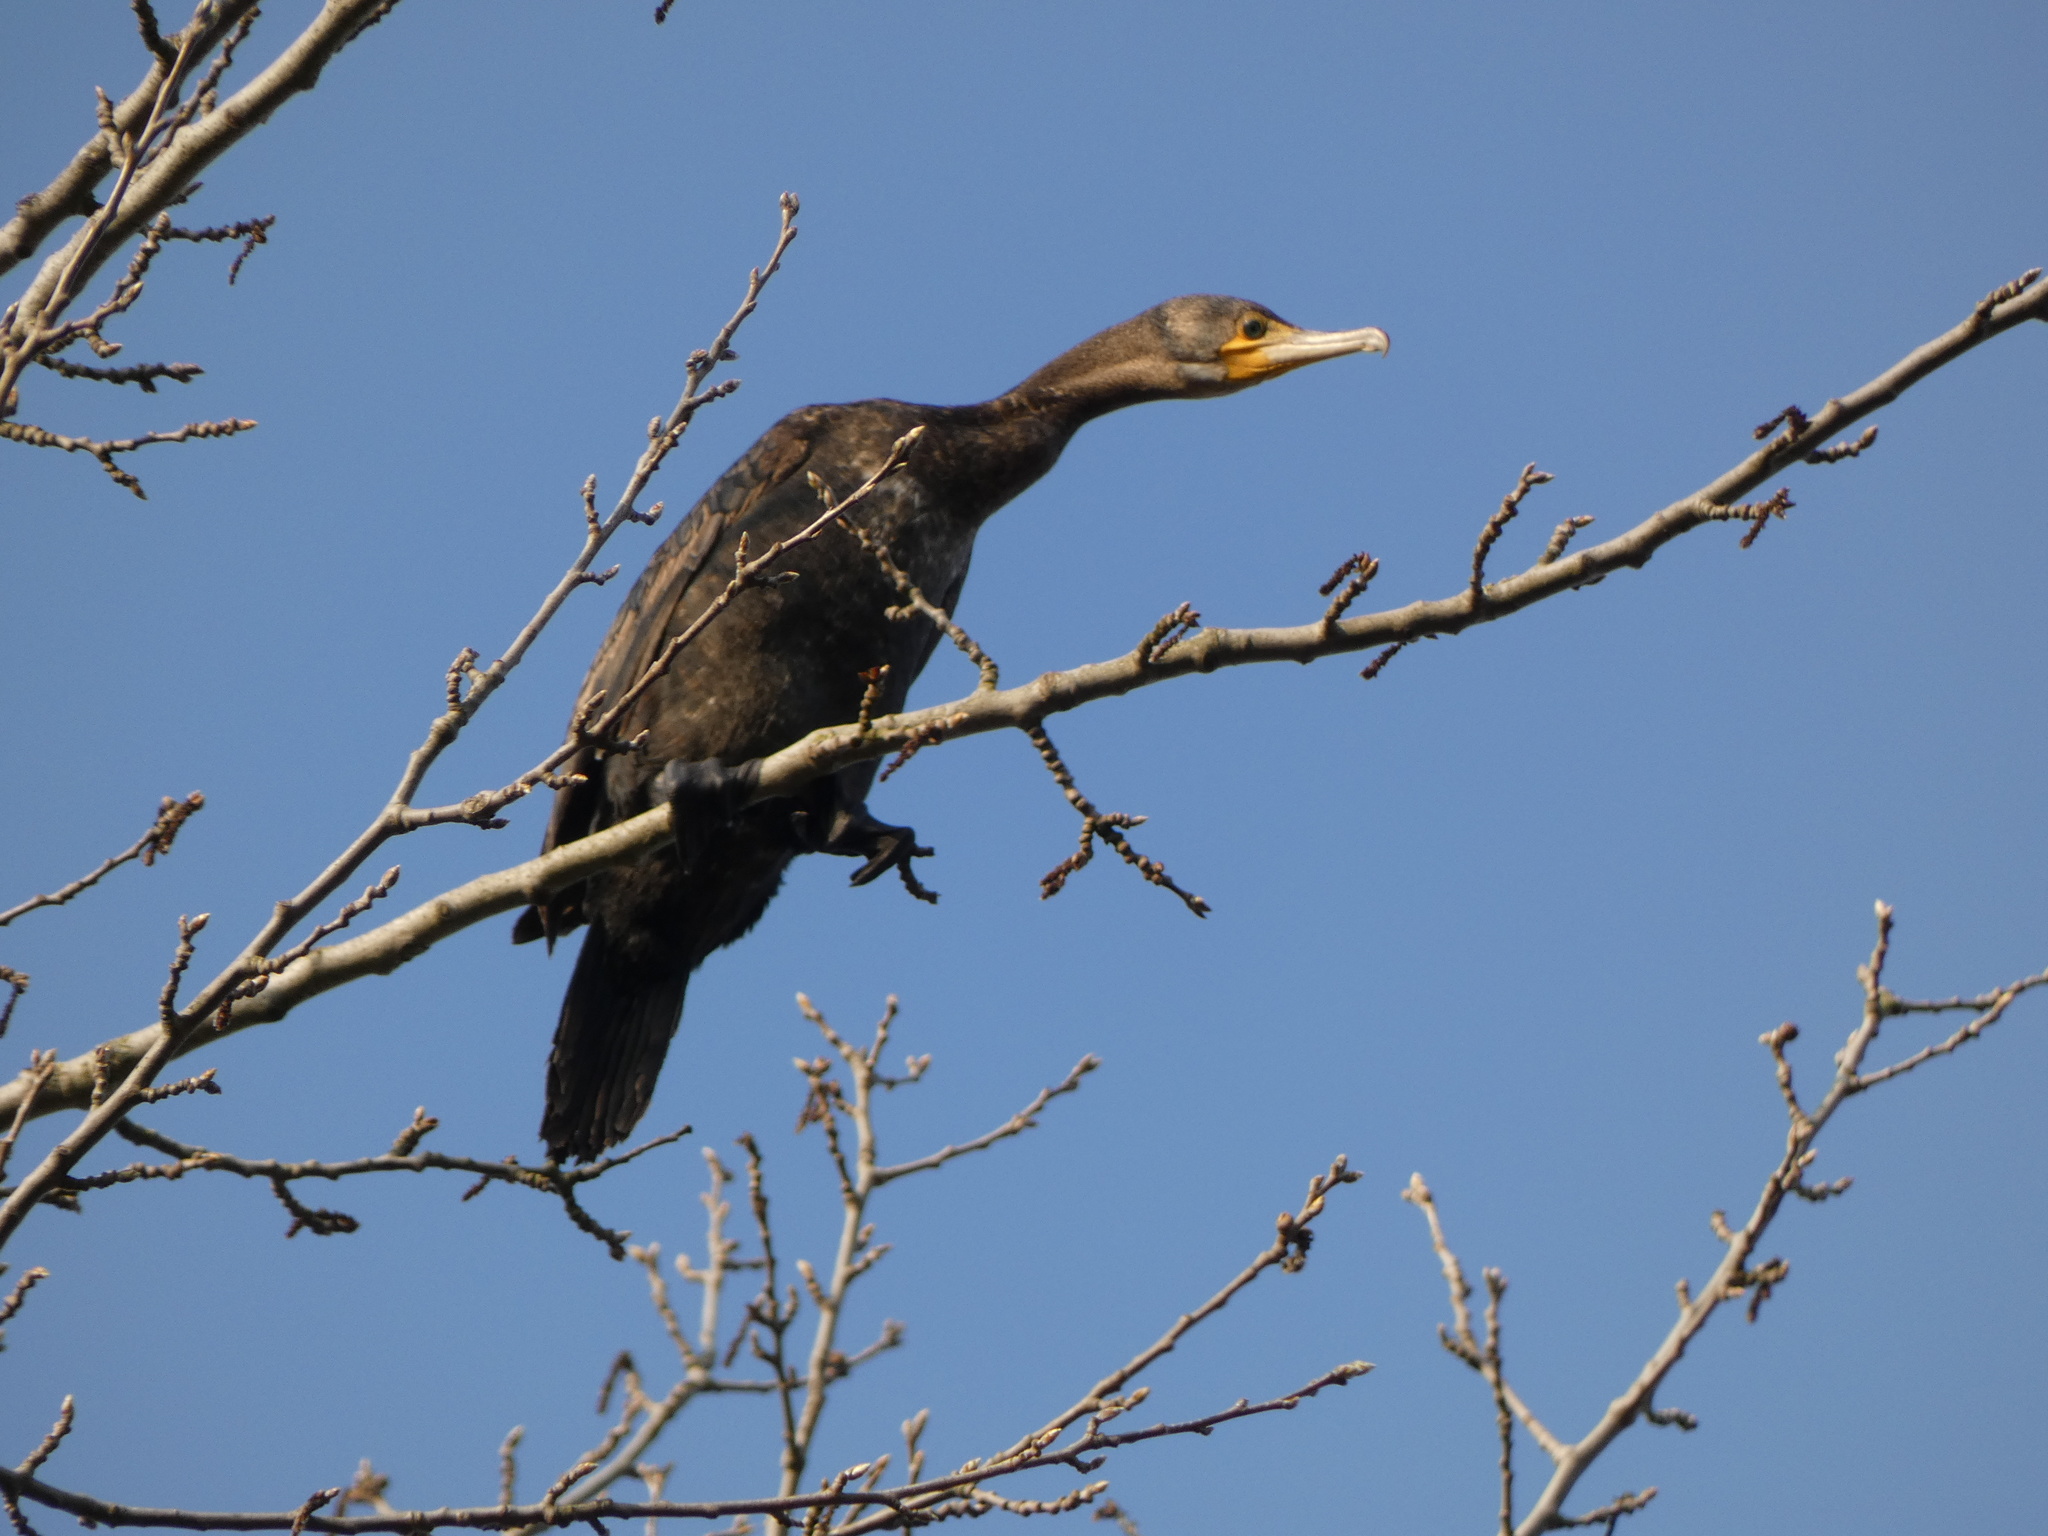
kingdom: Animalia
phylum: Chordata
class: Aves
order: Suliformes
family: Phalacrocoracidae
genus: Phalacrocorax
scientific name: Phalacrocorax carbo
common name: Great cormorant
